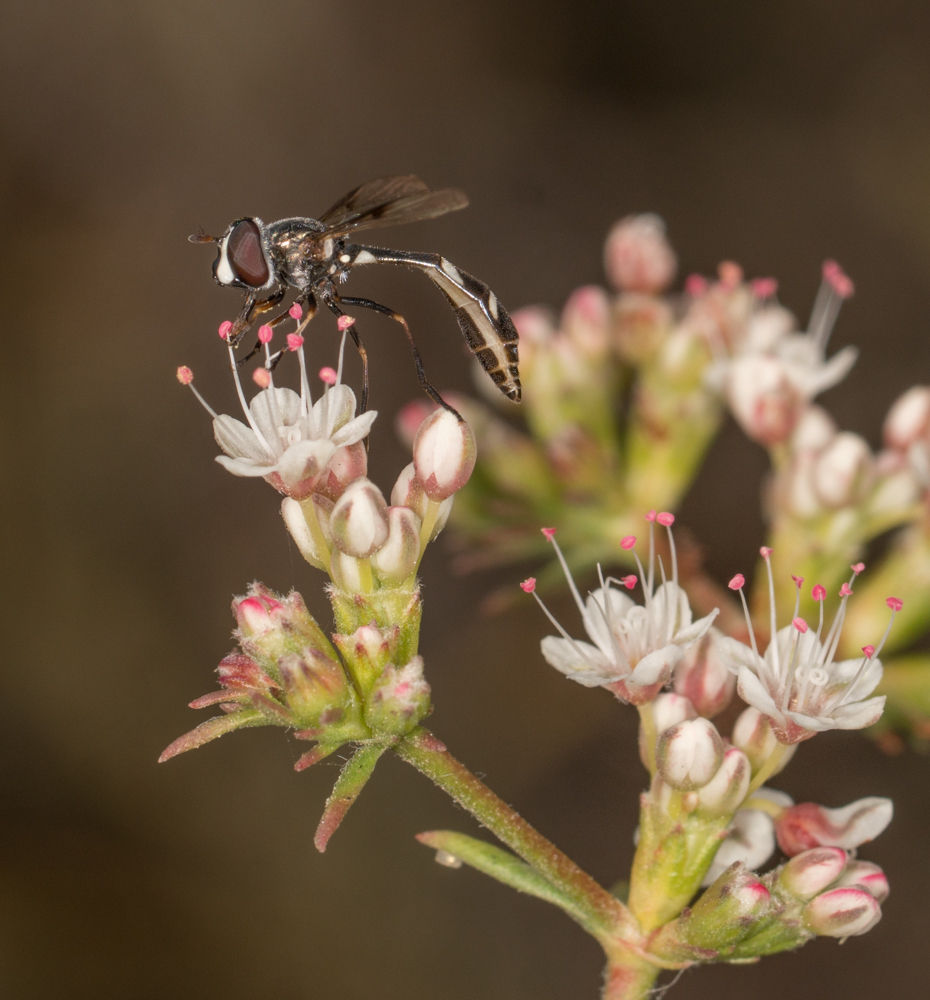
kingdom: Animalia
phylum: Arthropoda
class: Insecta
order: Diptera
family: Syrphidae
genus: Dioprosopa
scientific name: Dioprosopa clavatus
